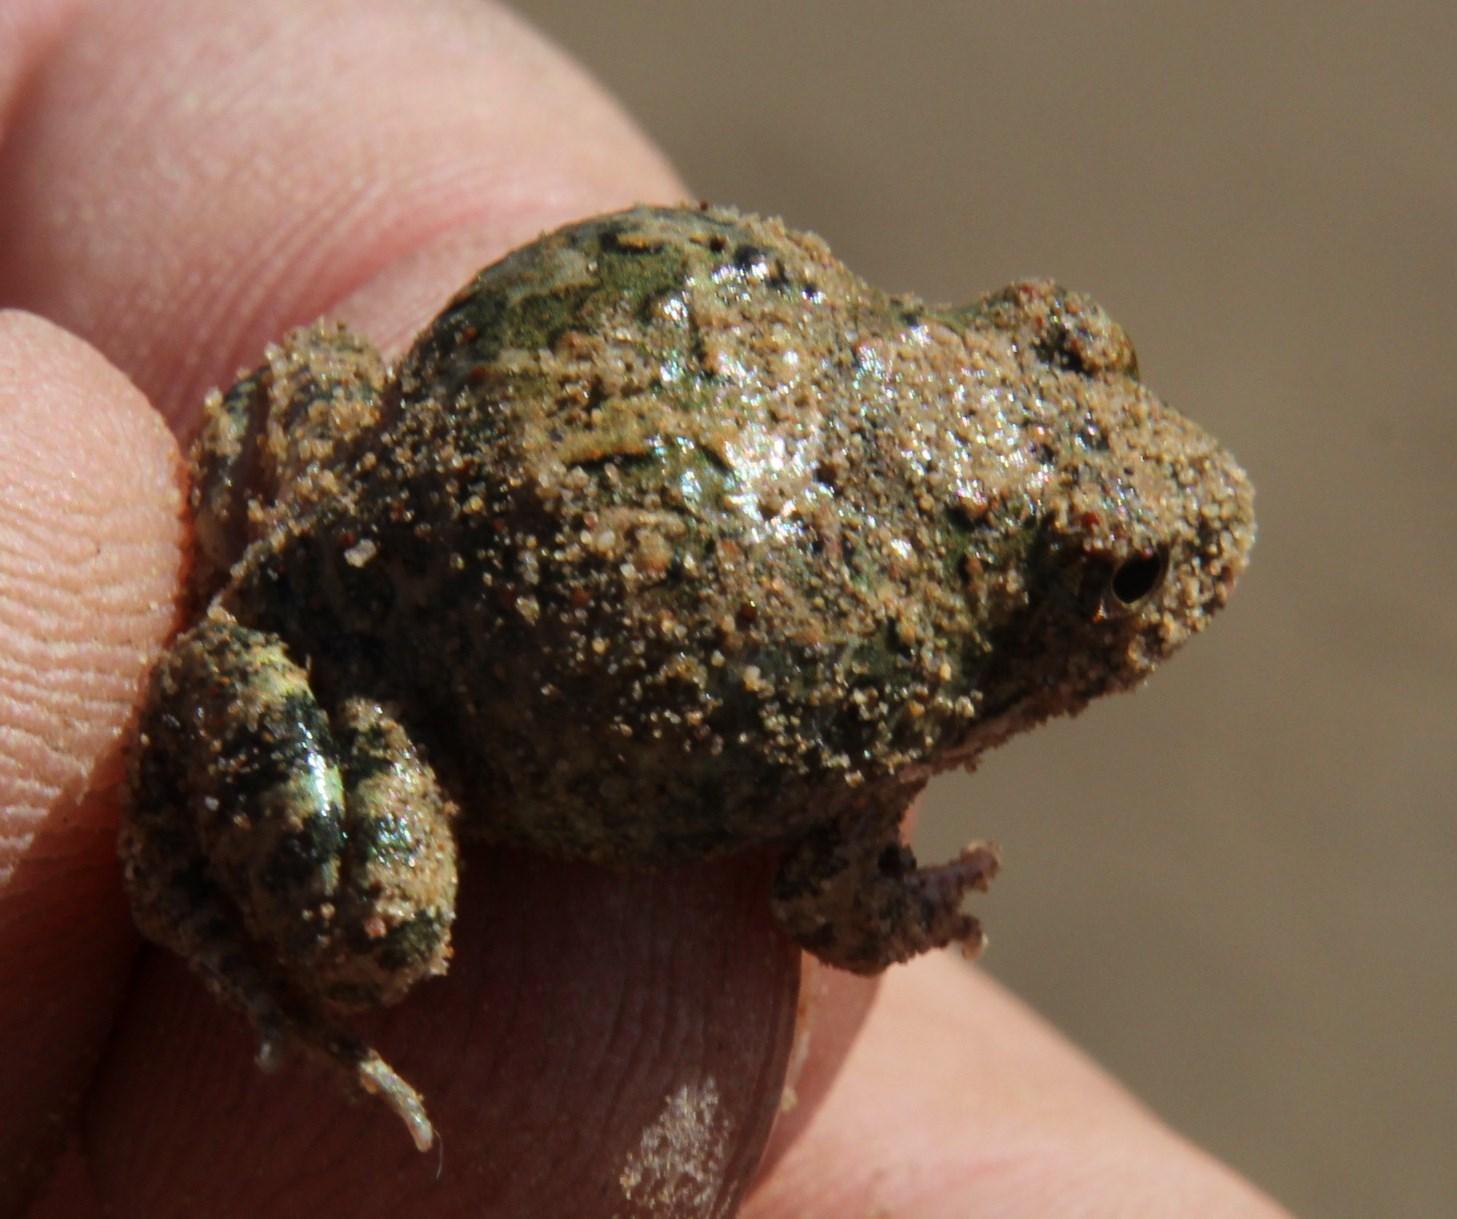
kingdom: Animalia
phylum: Chordata
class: Amphibia
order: Anura
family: Pyxicephalidae
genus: Tomopterna
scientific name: Tomopterna tandyi
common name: Tandy's sand frog
